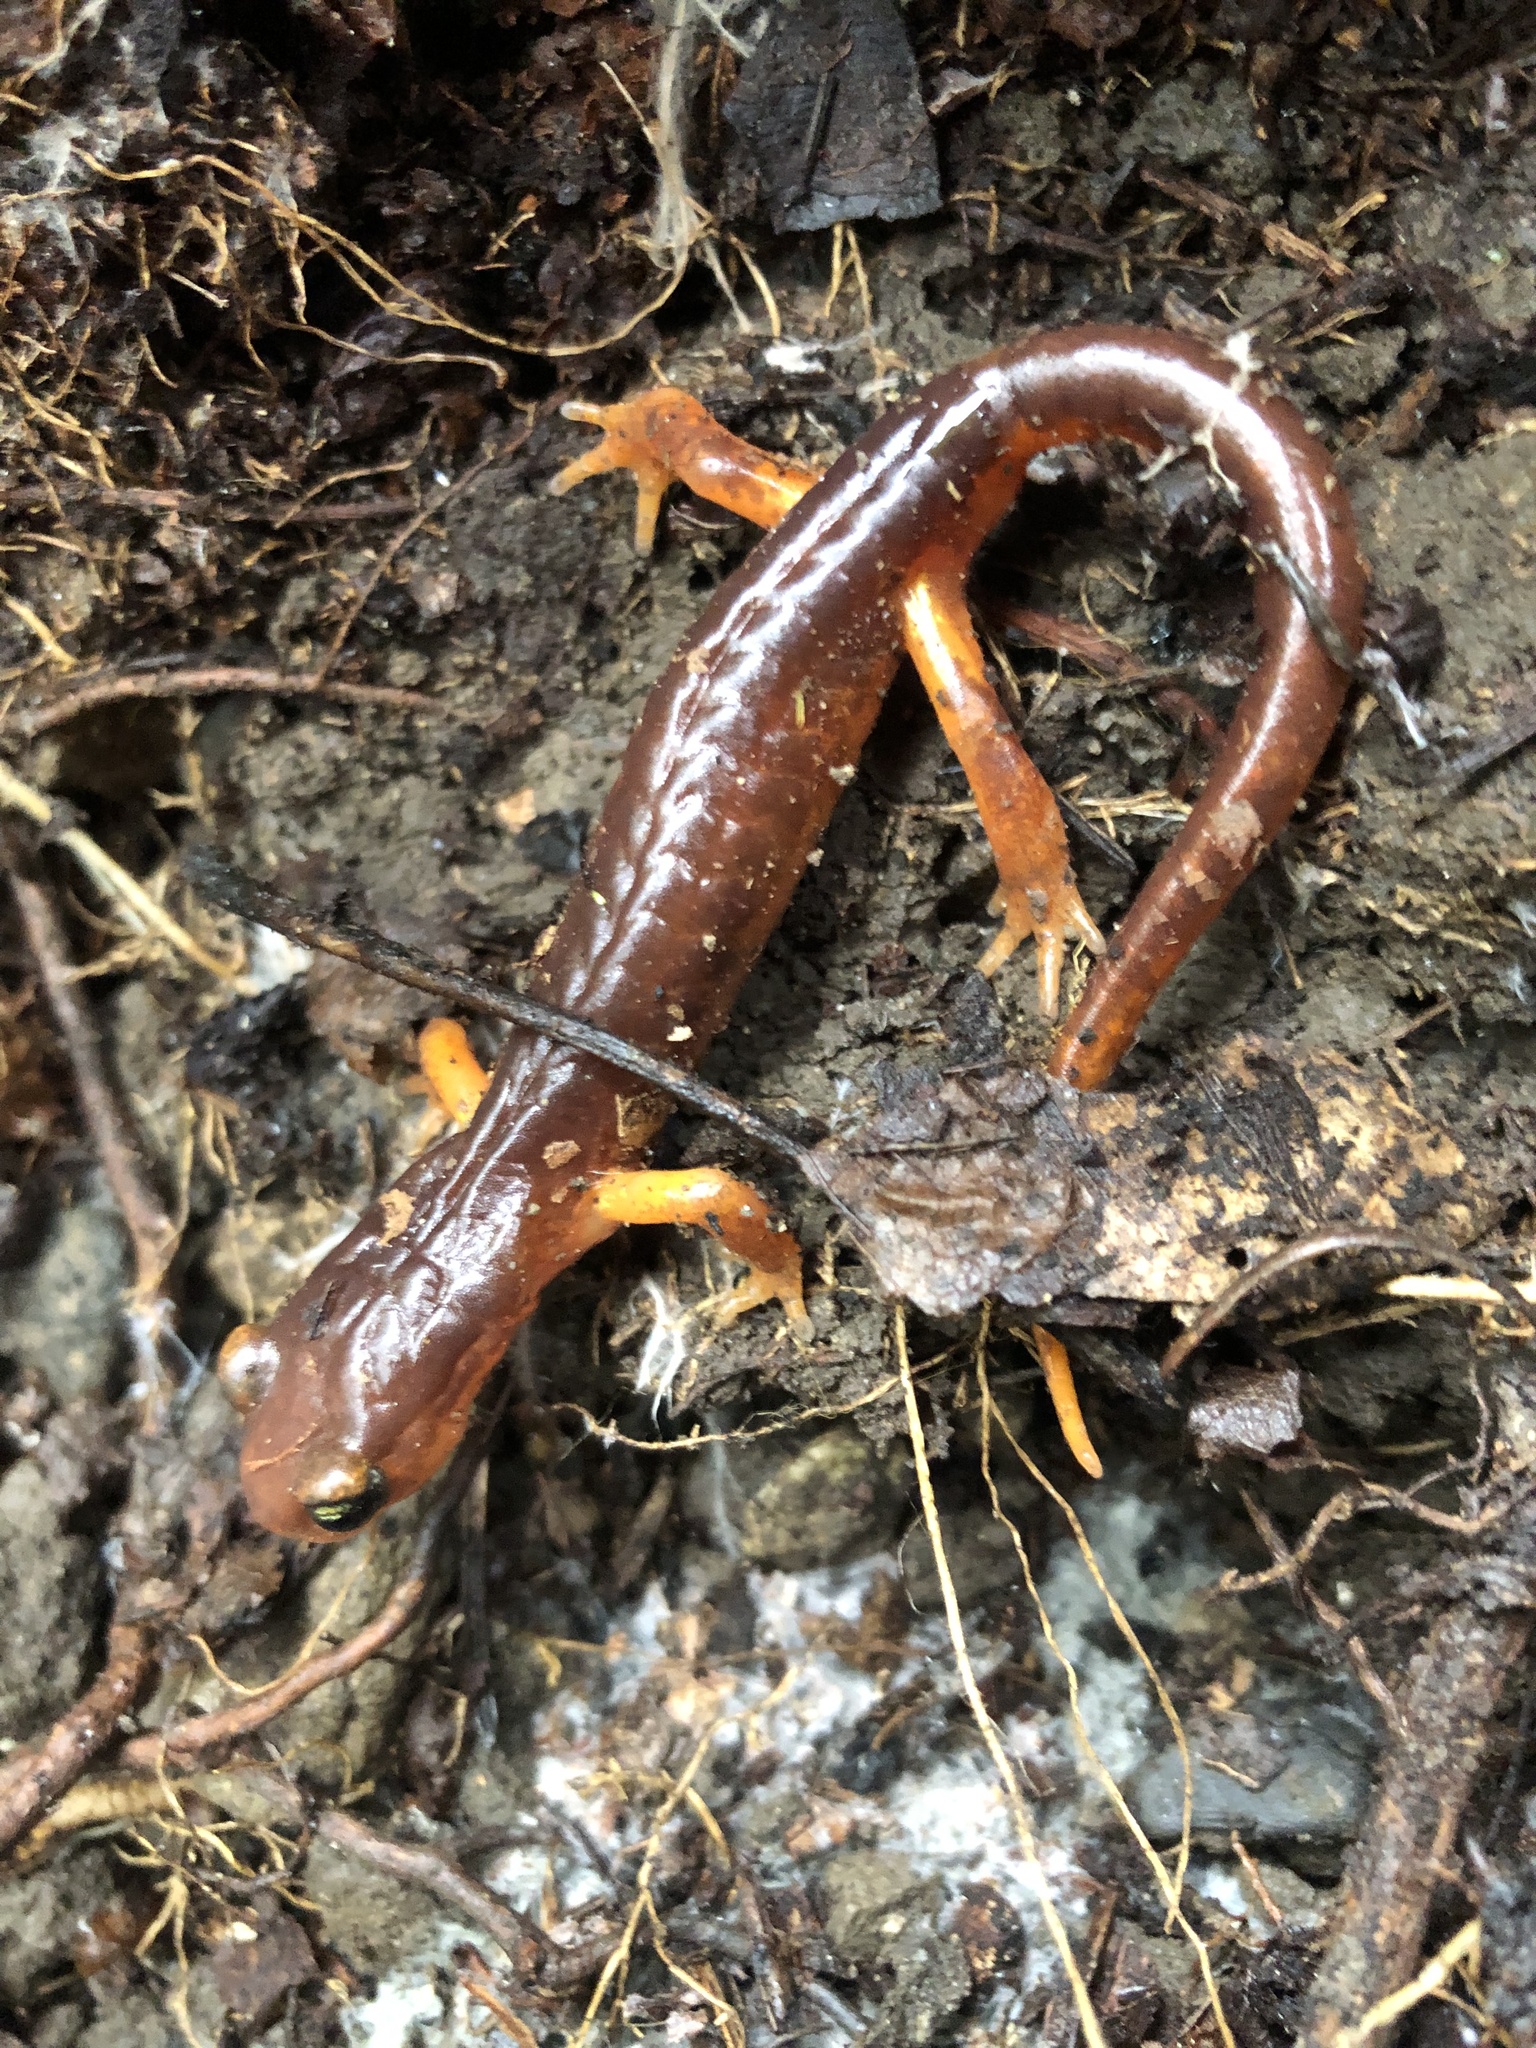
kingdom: Animalia
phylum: Chordata
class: Amphibia
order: Caudata
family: Plethodontidae
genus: Ensatina
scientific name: Ensatina eschscholtzii
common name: Ensatina
